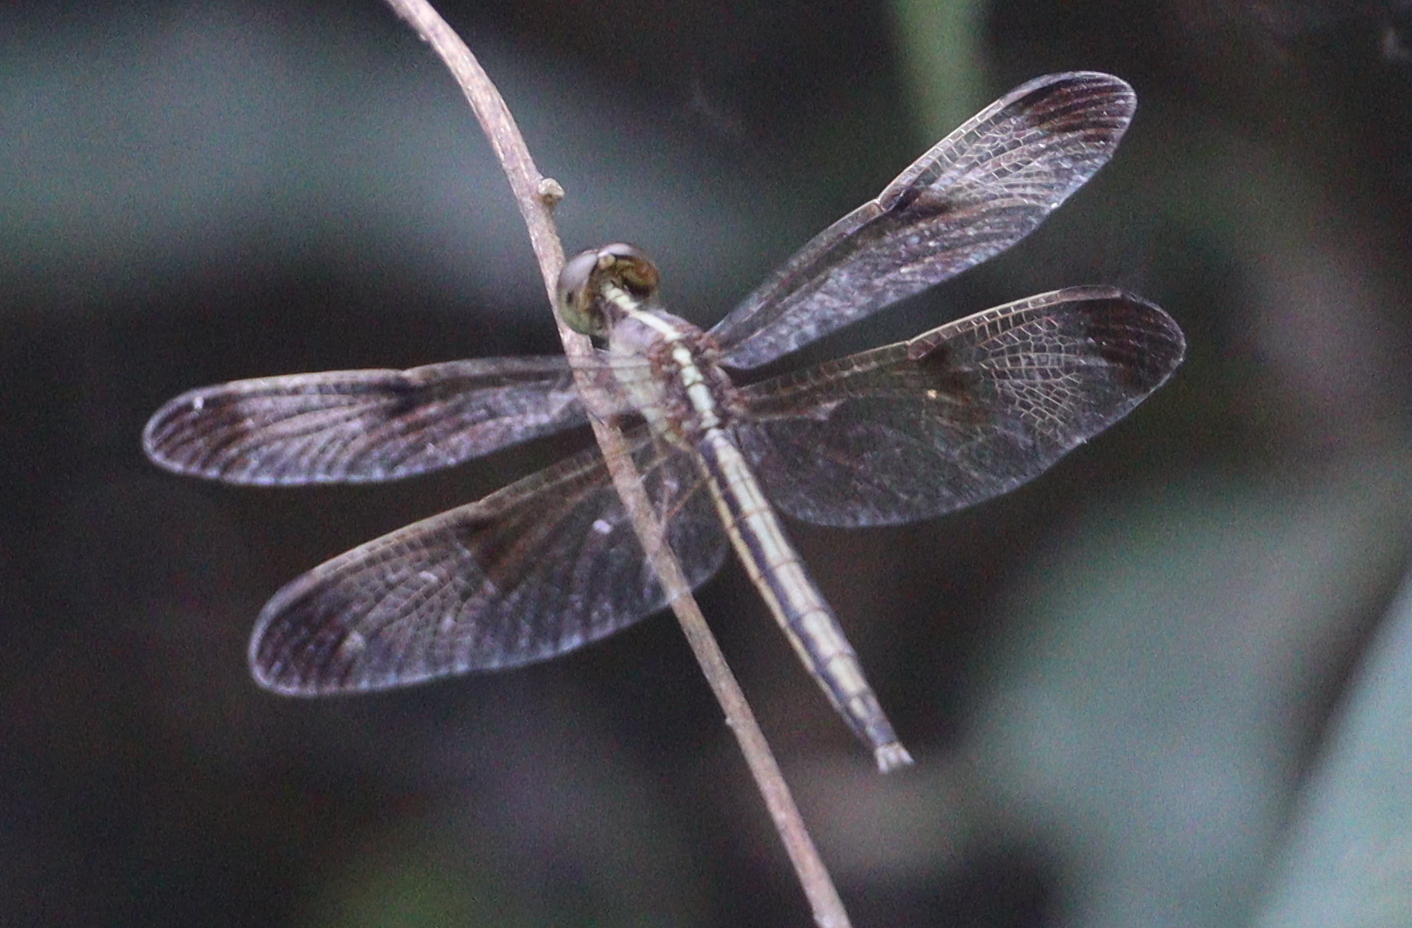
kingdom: Animalia
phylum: Arthropoda
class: Insecta
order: Odonata
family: Libellulidae
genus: Neurothemis
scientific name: Neurothemis tullia
